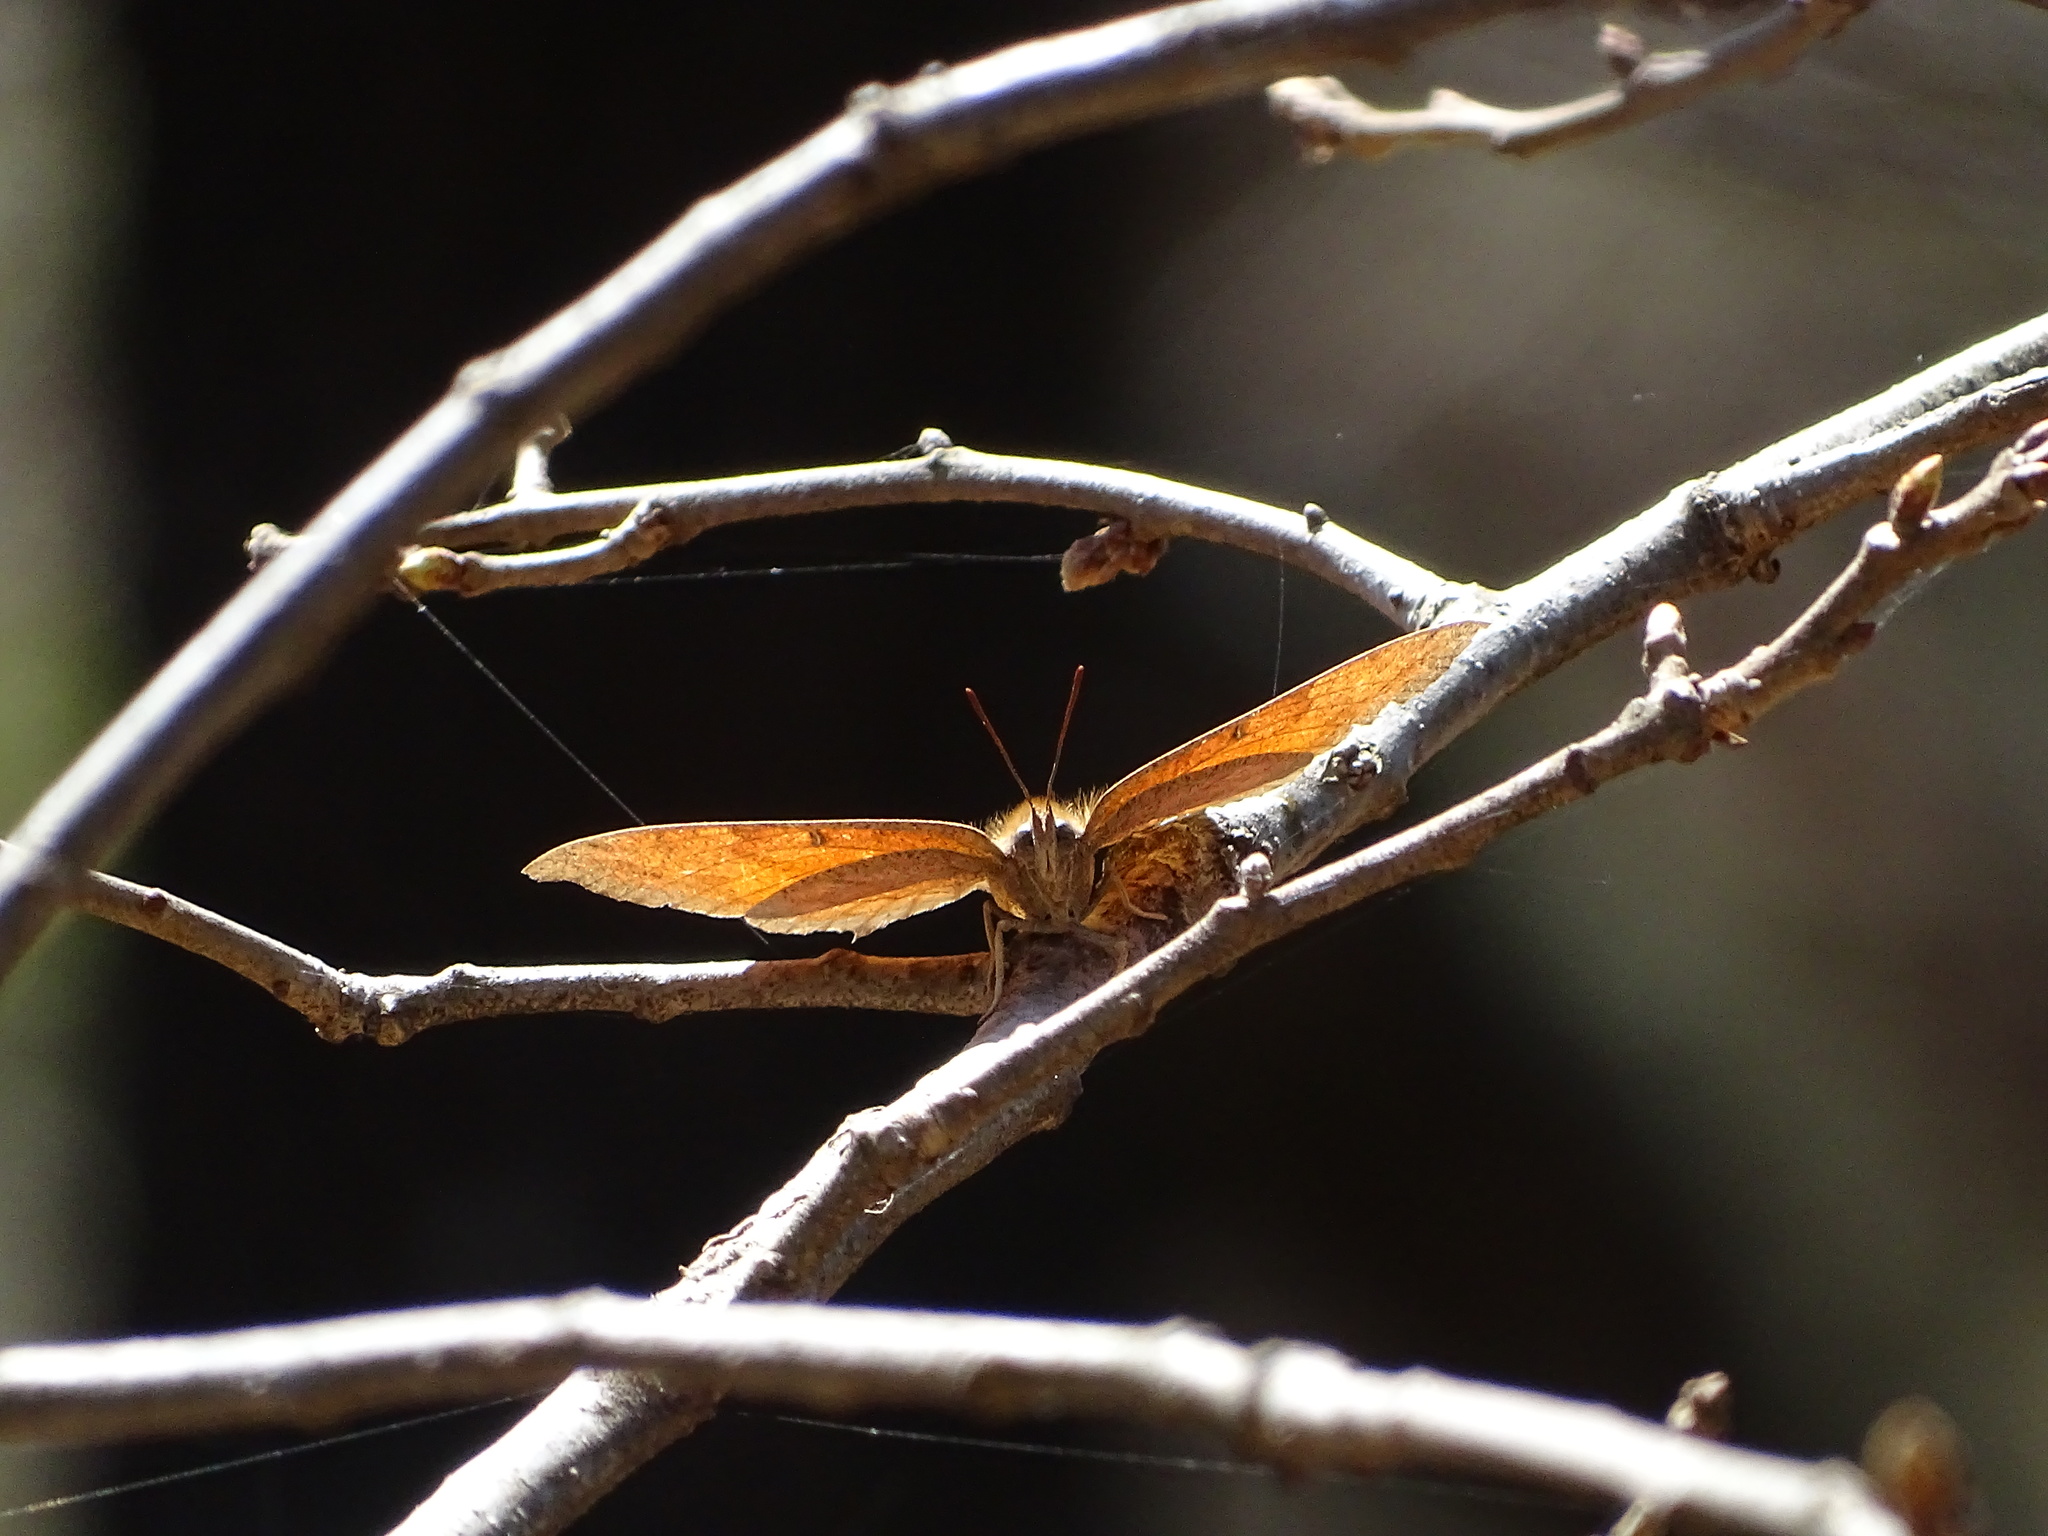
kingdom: Animalia
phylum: Arthropoda
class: Insecta
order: Lepidoptera
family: Nymphalidae
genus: Anaea
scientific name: Anaea andria
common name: Goatweed leafwing
